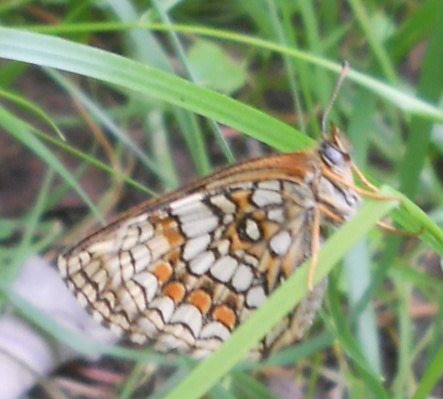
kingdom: Animalia
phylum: Arthropoda
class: Insecta
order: Lepidoptera
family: Nymphalidae
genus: Melitaea
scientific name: Melitaea athalia
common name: Heath fritillary
